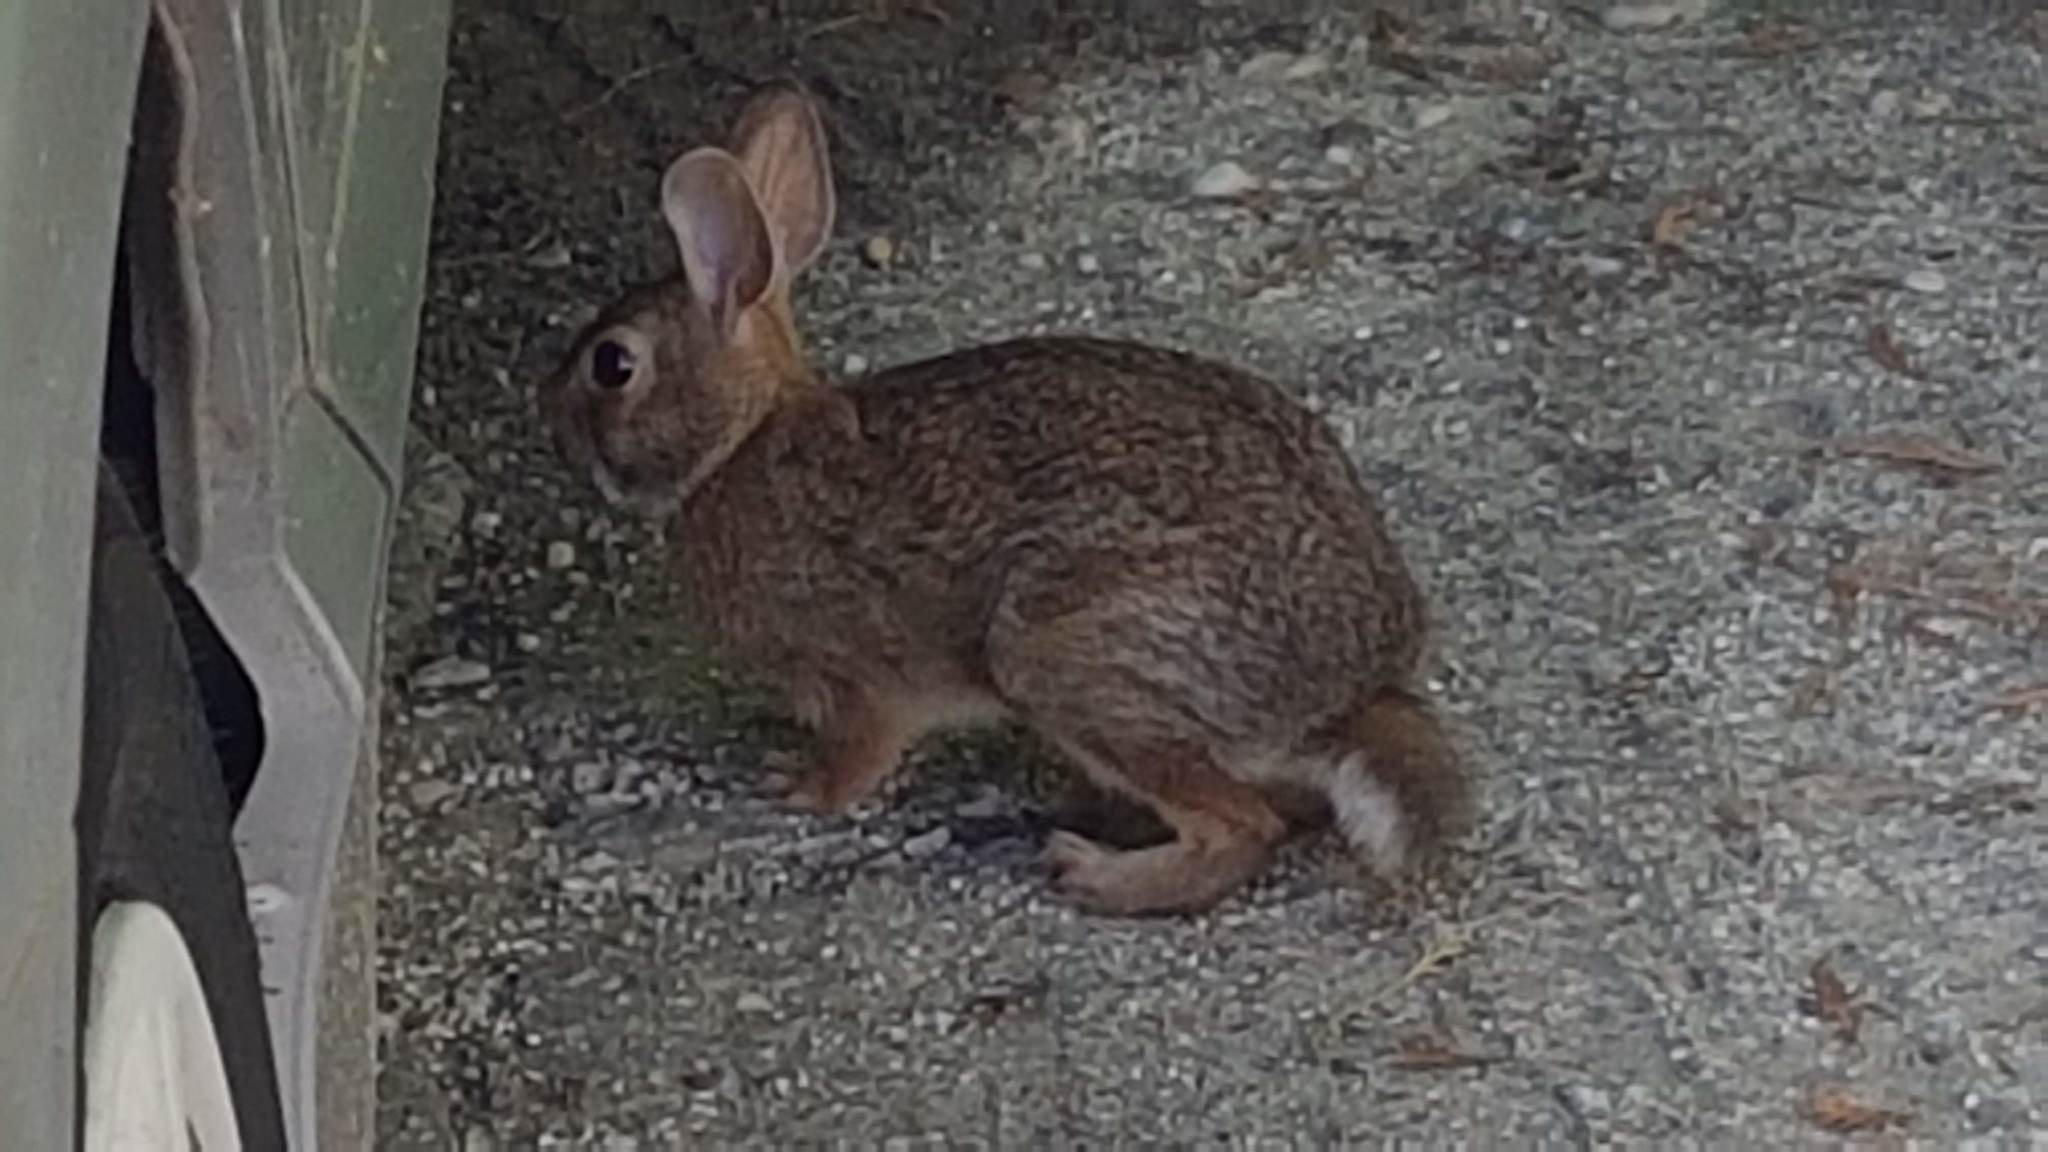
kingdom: Animalia
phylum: Chordata
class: Mammalia
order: Lagomorpha
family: Leporidae
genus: Sylvilagus
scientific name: Sylvilagus floridanus
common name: Eastern cottontail
